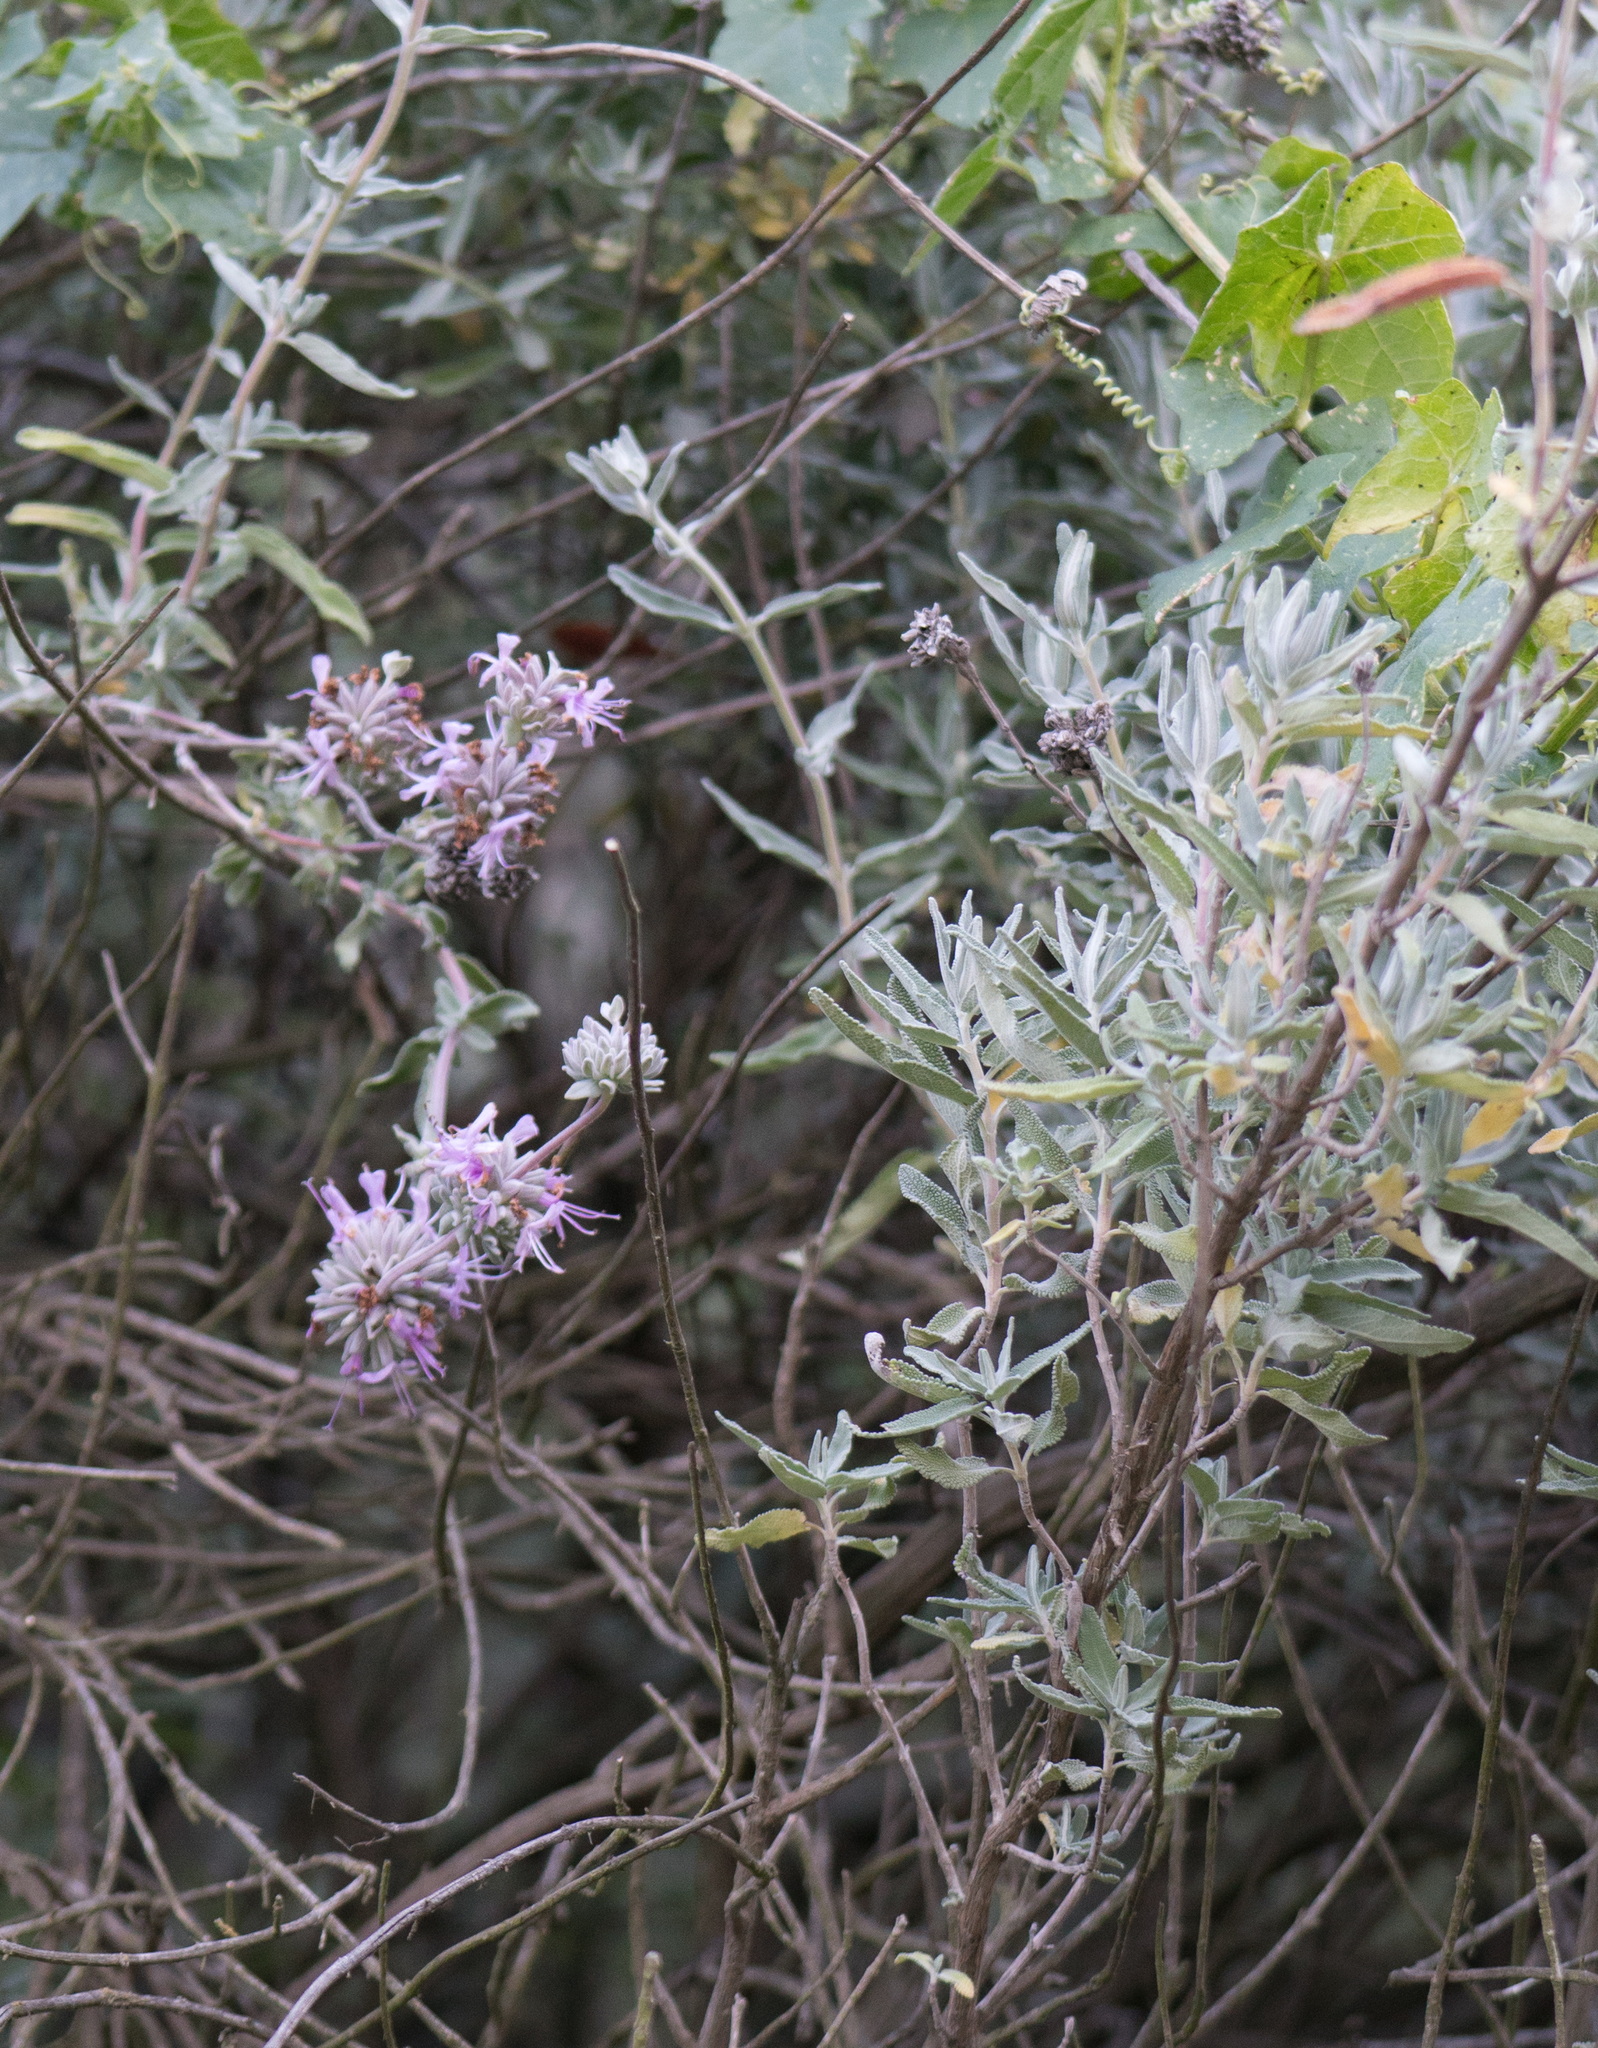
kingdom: Plantae
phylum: Tracheophyta
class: Magnoliopsida
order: Lamiales
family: Lamiaceae
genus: Salvia
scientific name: Salvia leucophylla
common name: Purple sage
